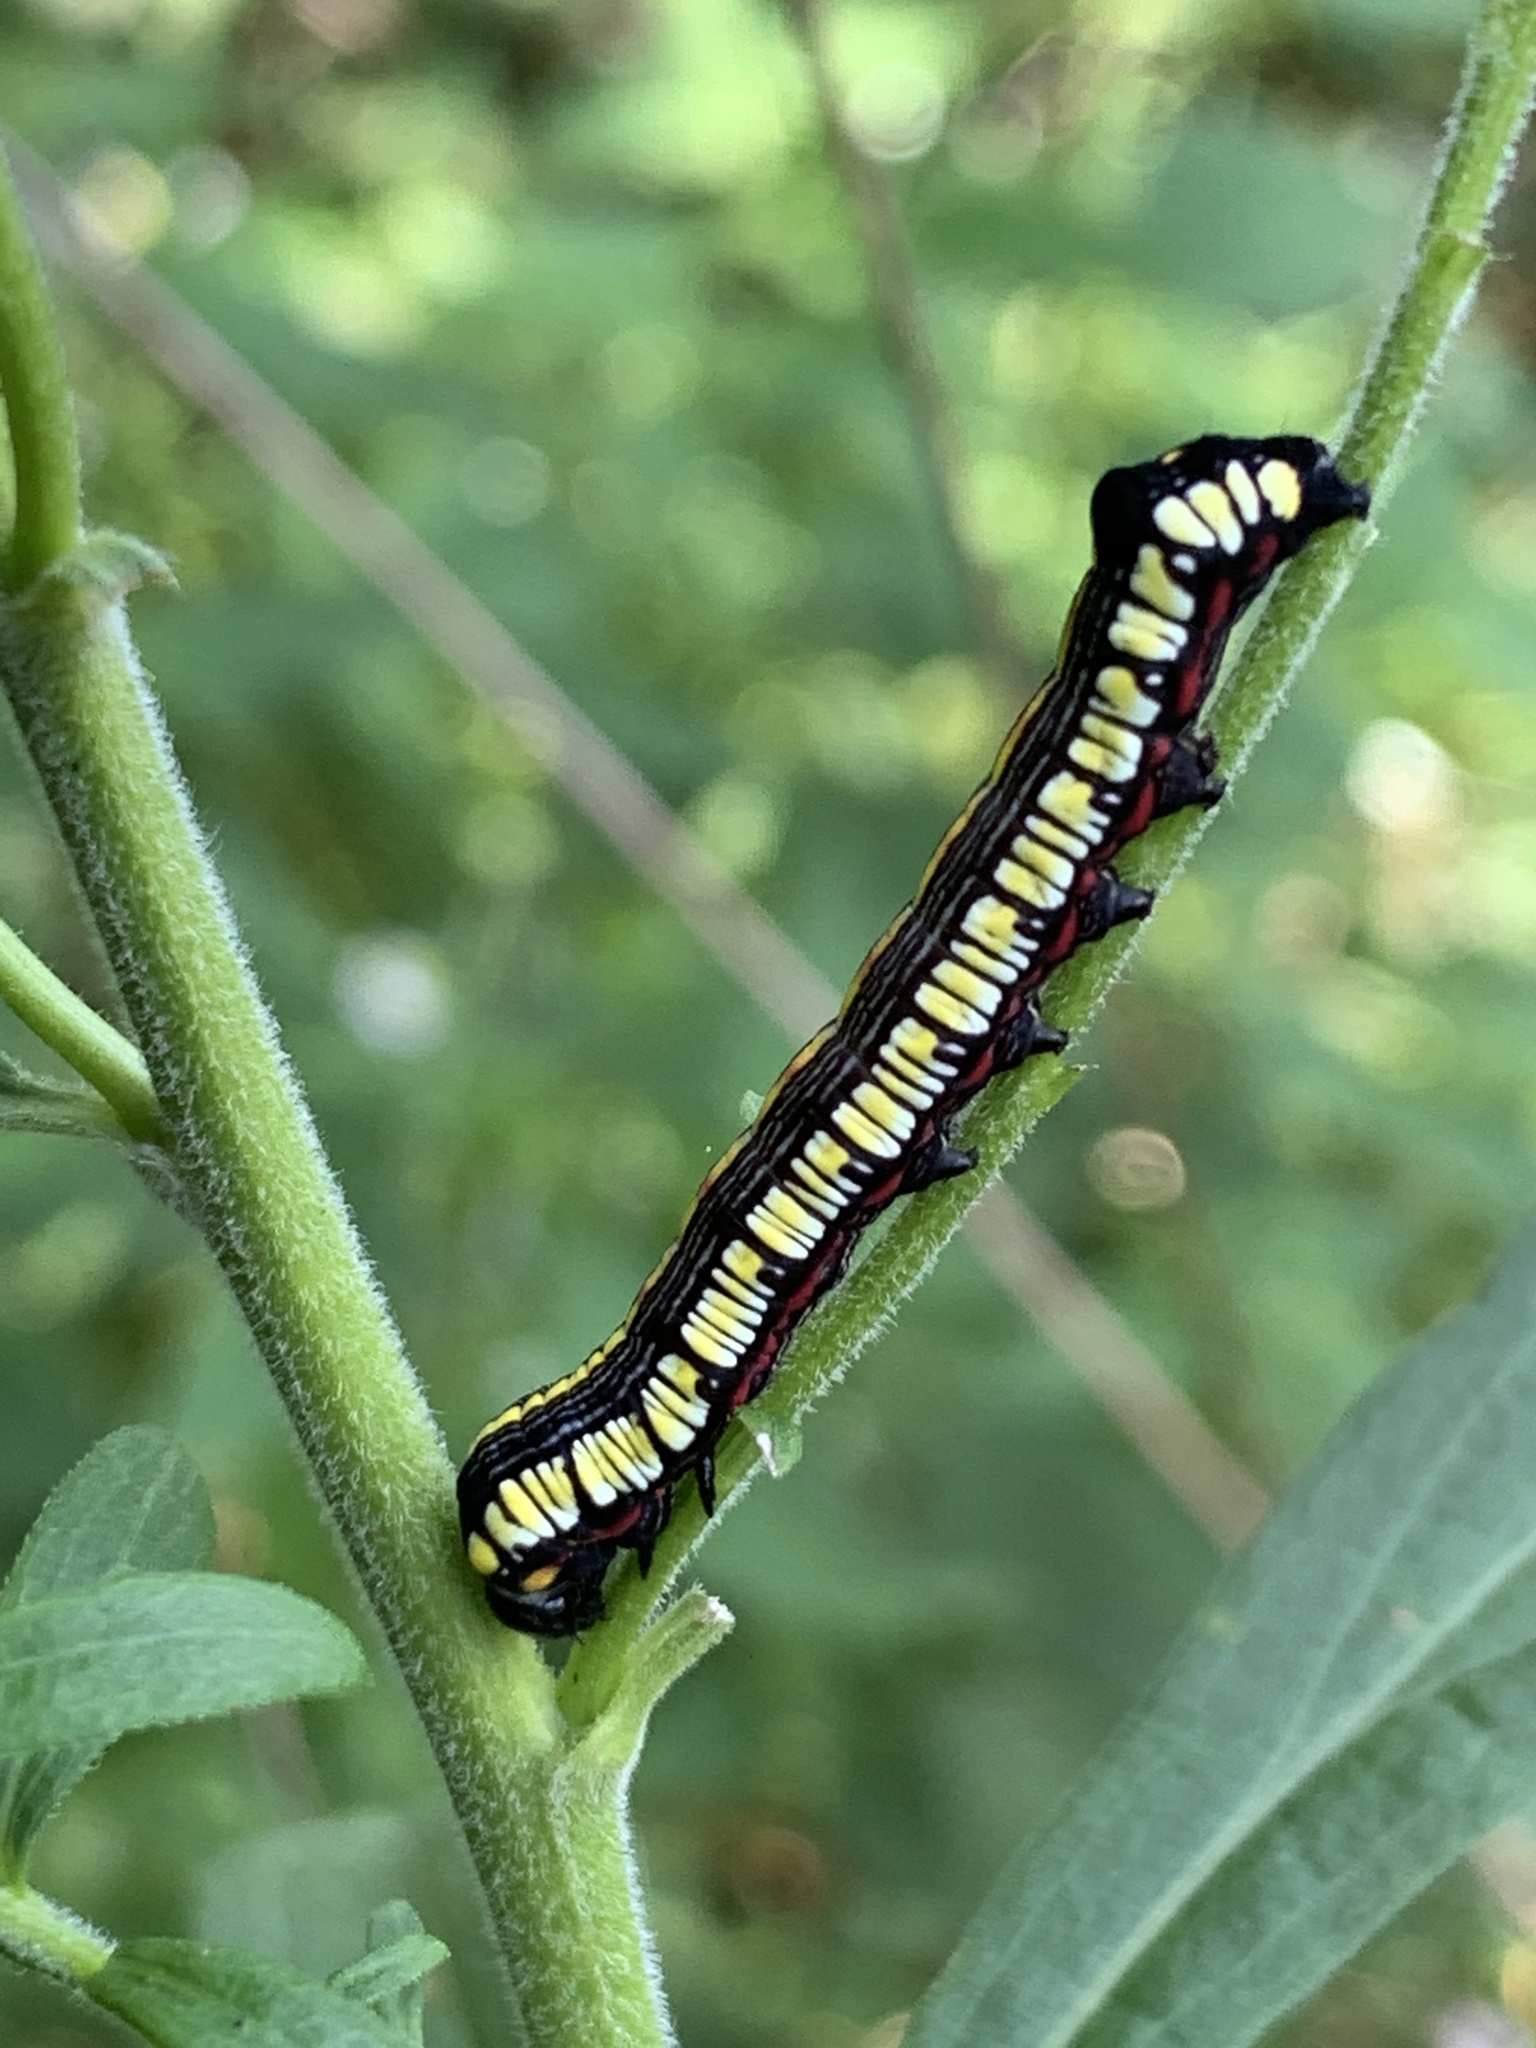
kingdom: Animalia
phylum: Arthropoda
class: Insecta
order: Lepidoptera
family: Noctuidae
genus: Cucullia
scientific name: Cucullia convexipennis
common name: Brown-hooded owlet
